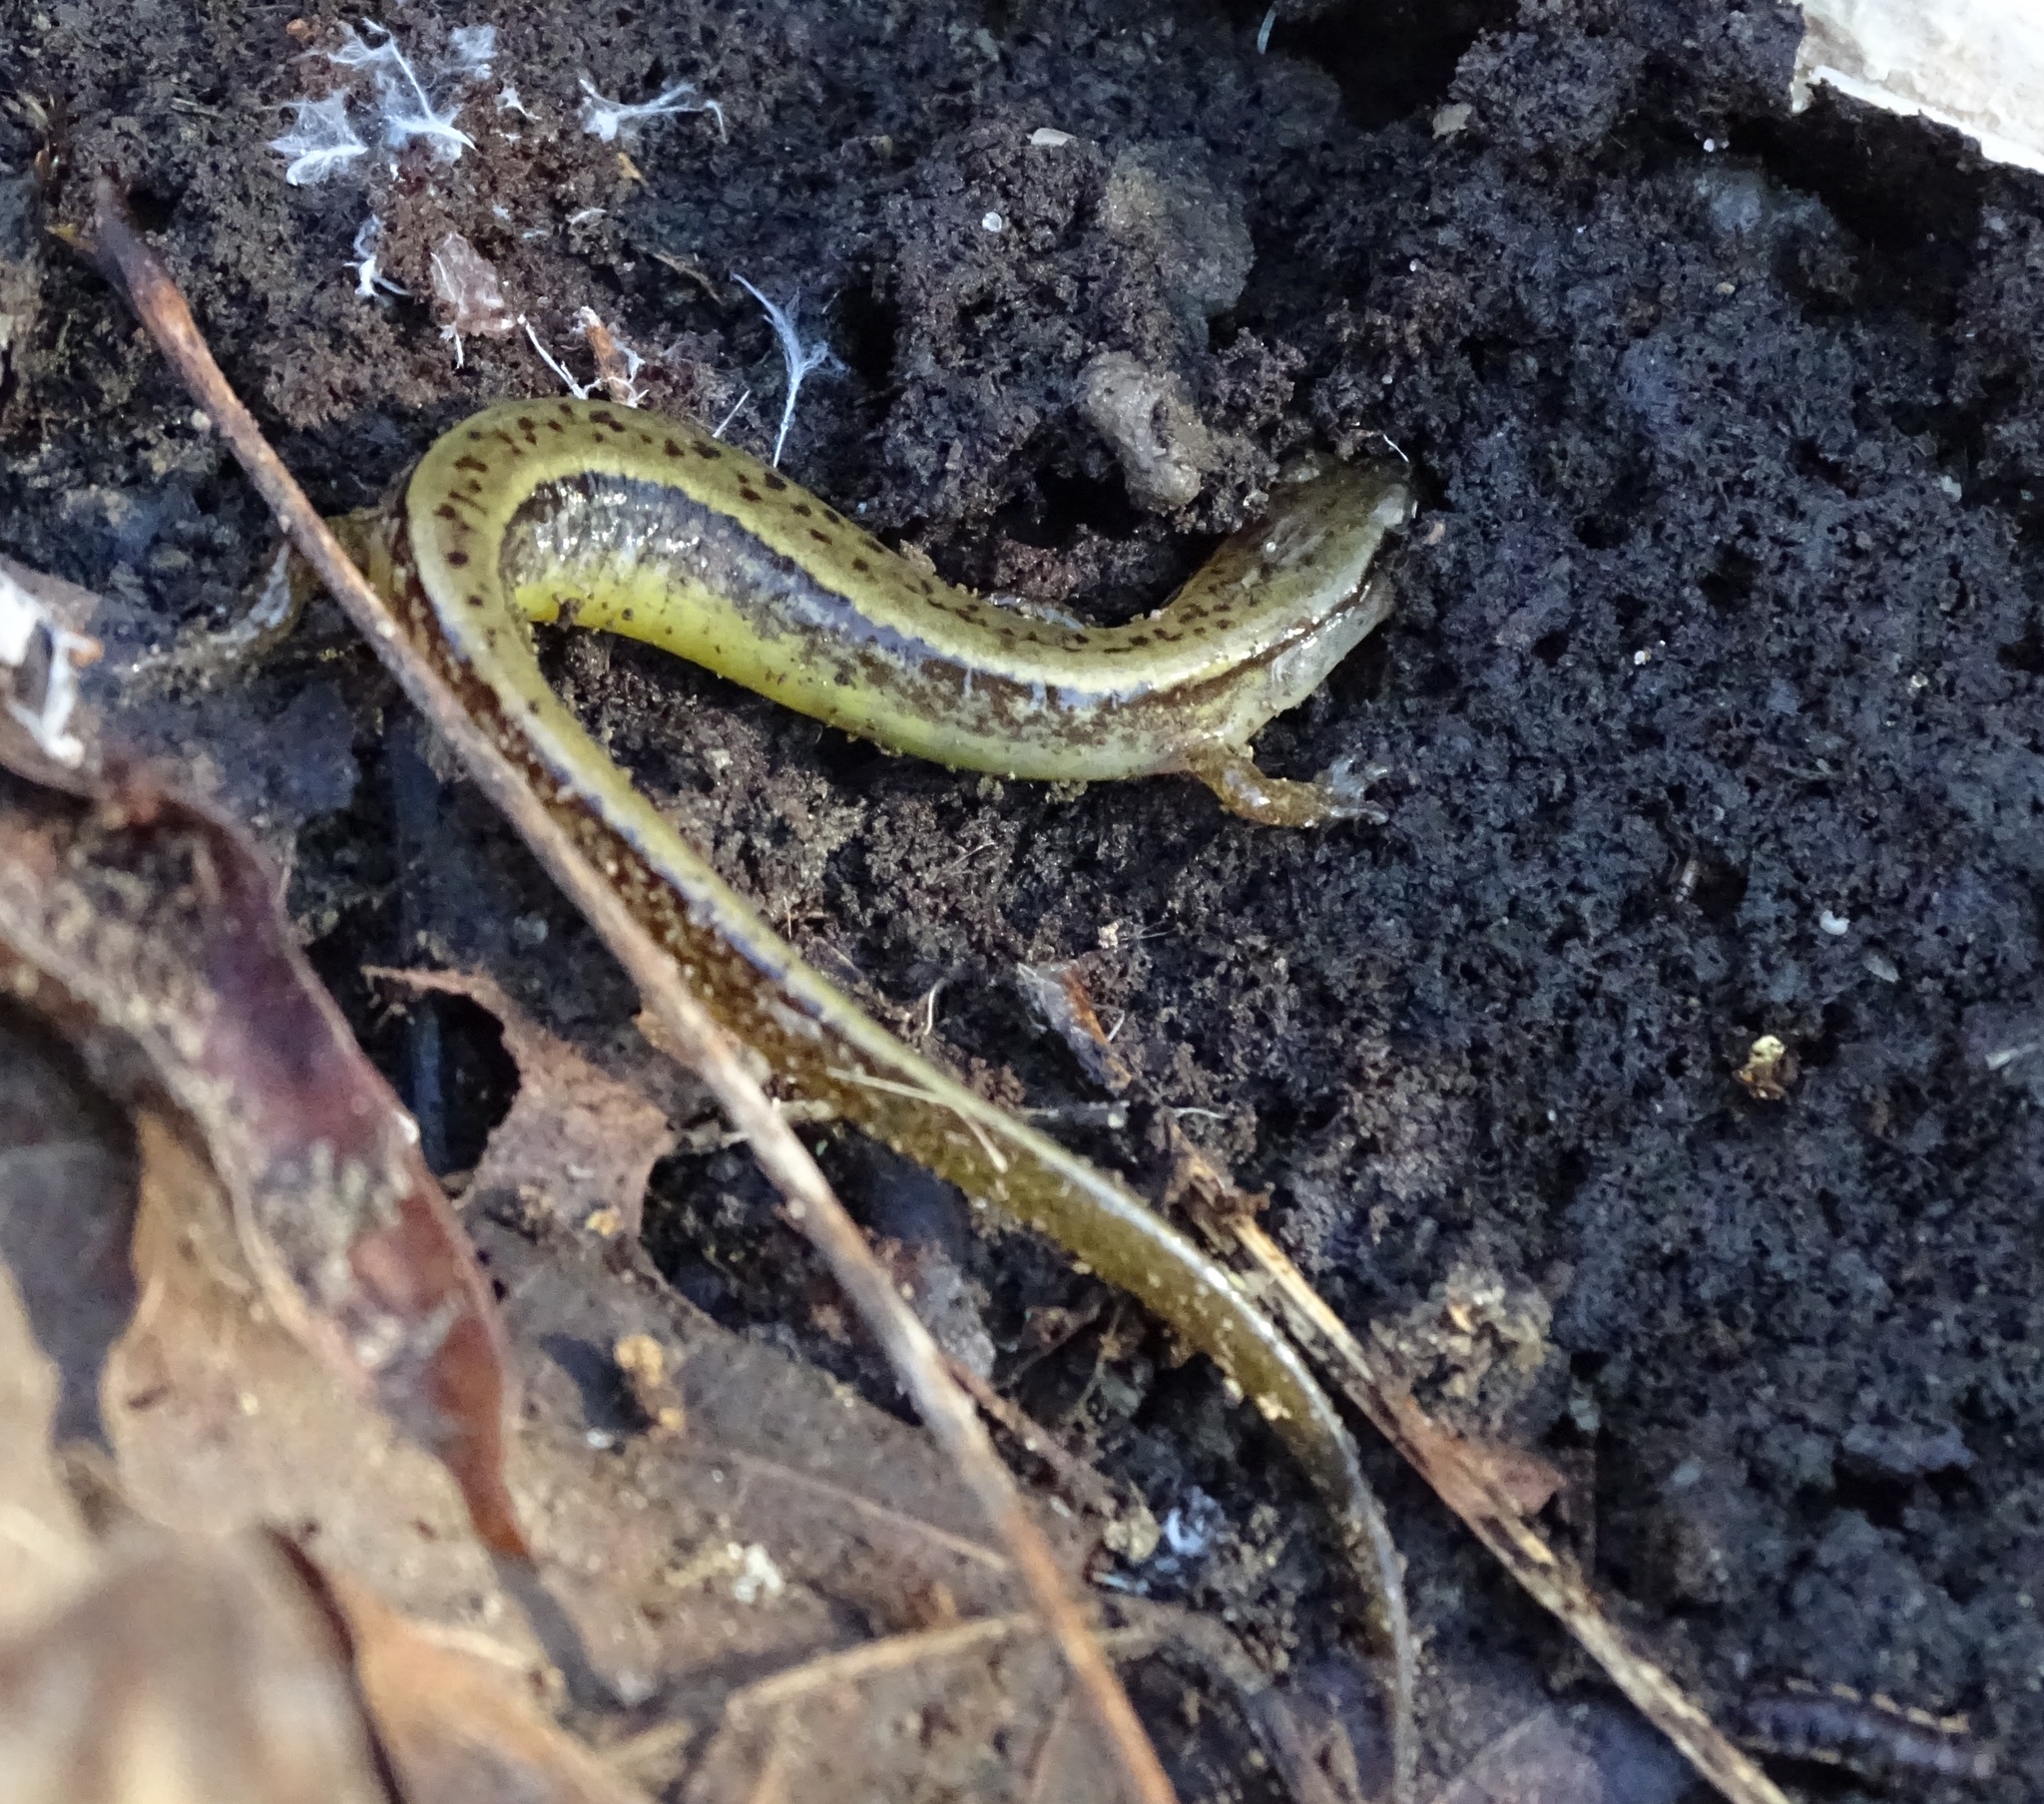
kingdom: Animalia
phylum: Chordata
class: Amphibia
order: Caudata
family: Plethodontidae
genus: Eurycea
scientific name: Eurycea cirrigera
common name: Southern two-lined salamander
